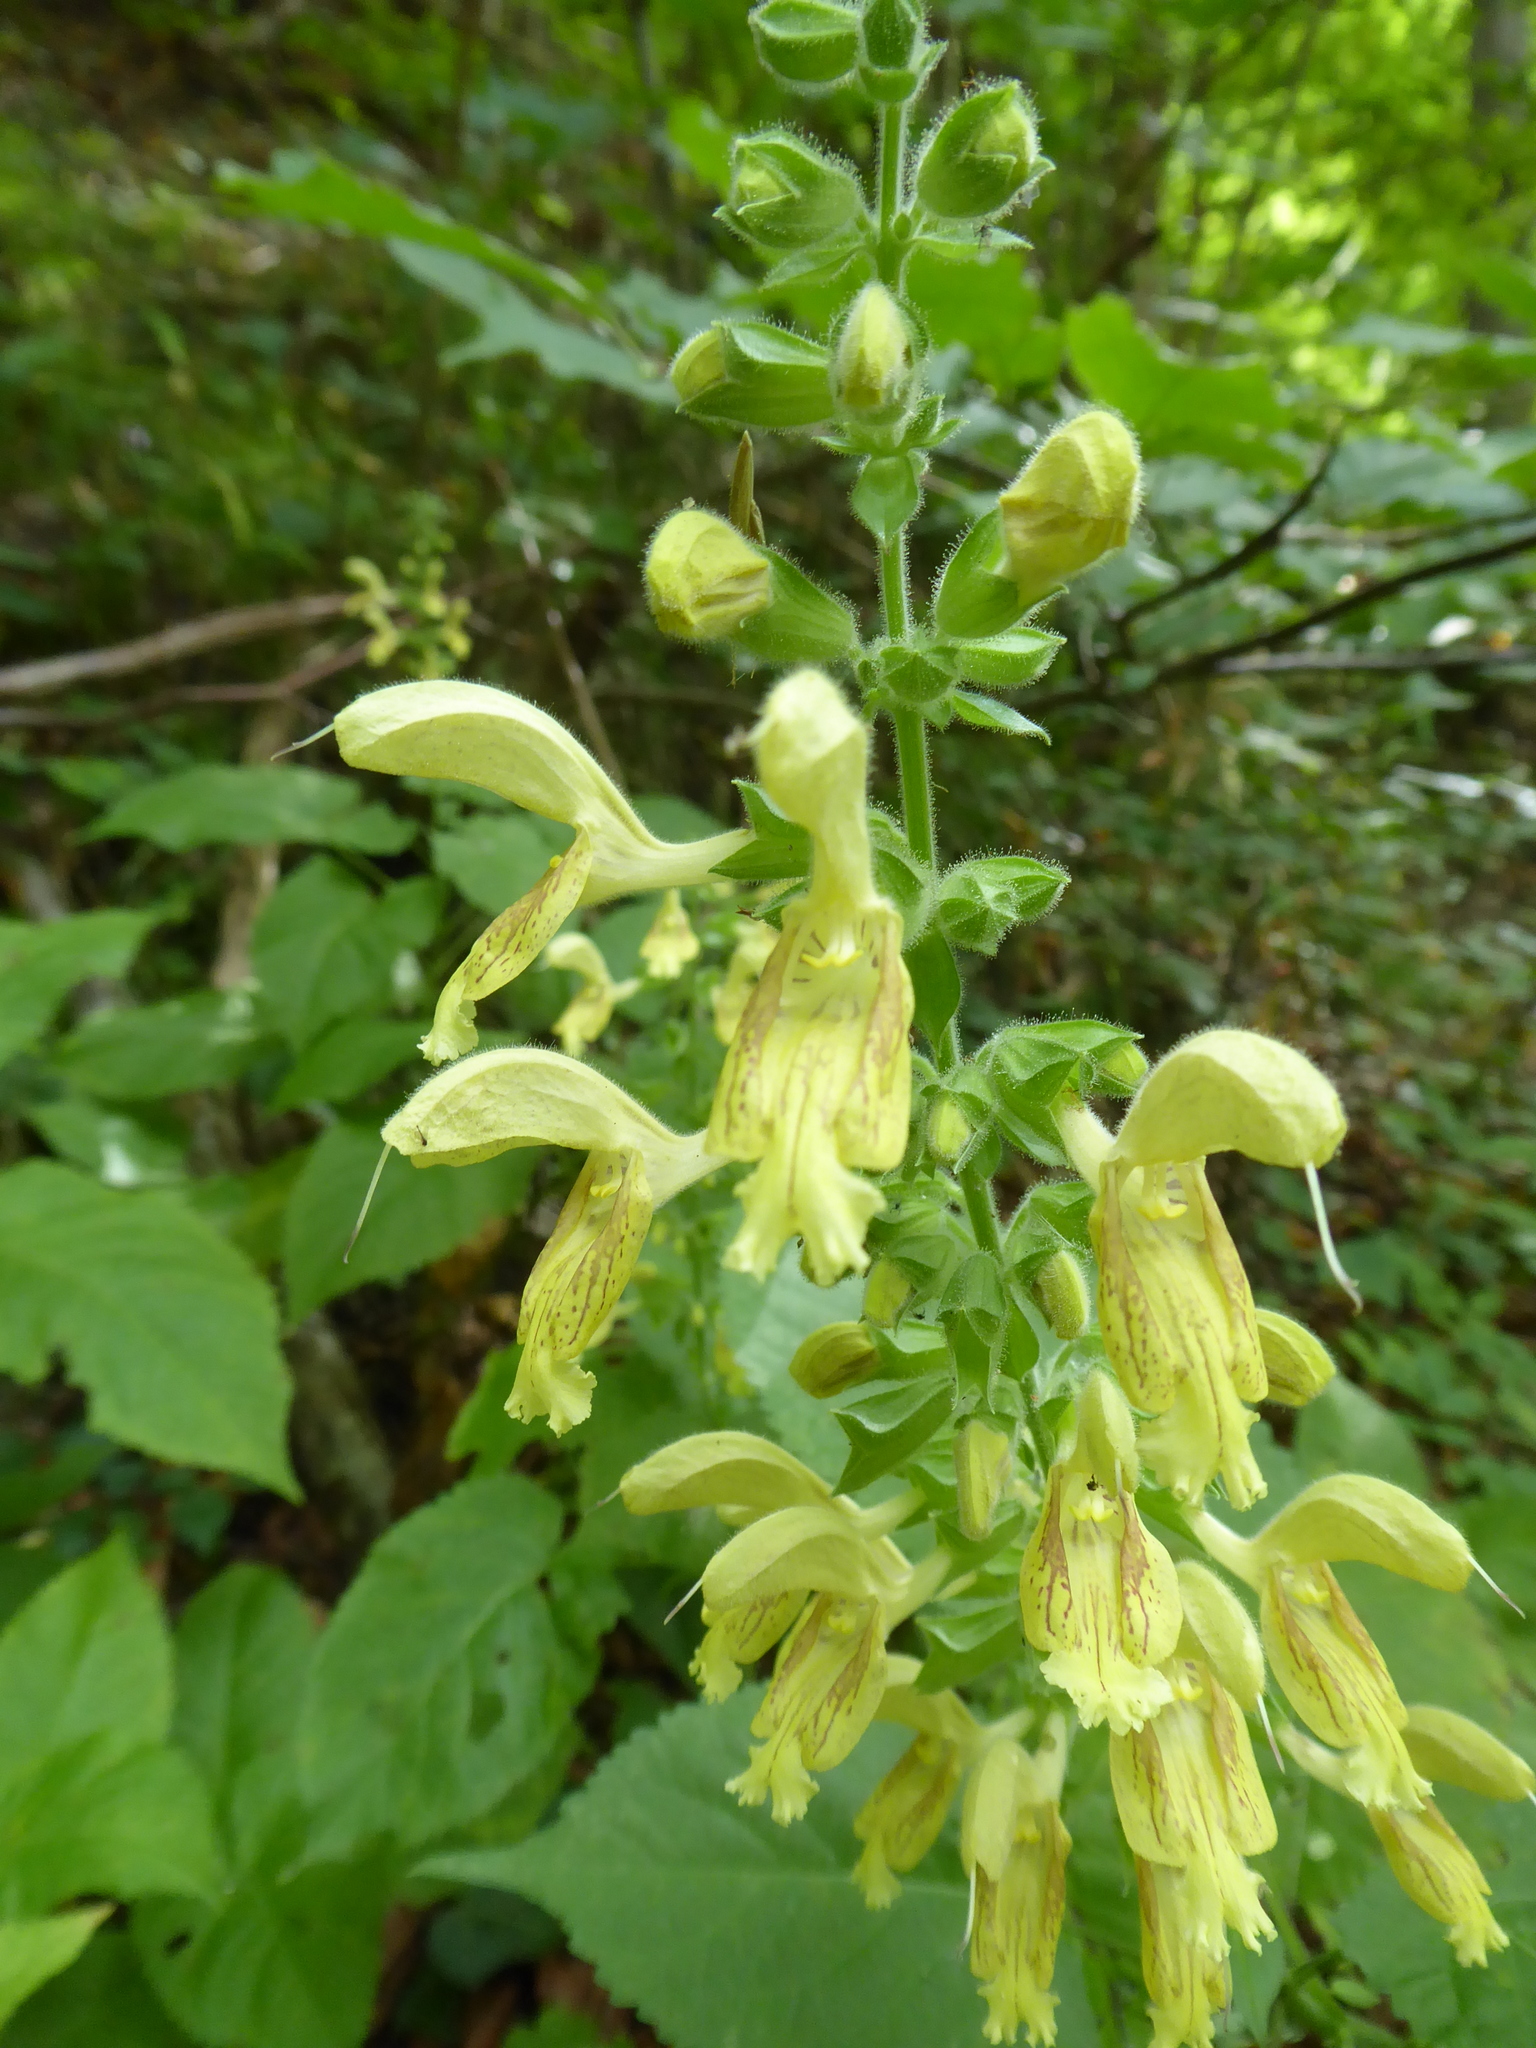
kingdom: Plantae
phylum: Tracheophyta
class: Magnoliopsida
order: Lamiales
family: Lamiaceae
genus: Salvia
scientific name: Salvia glutinosa
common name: Sticky clary
